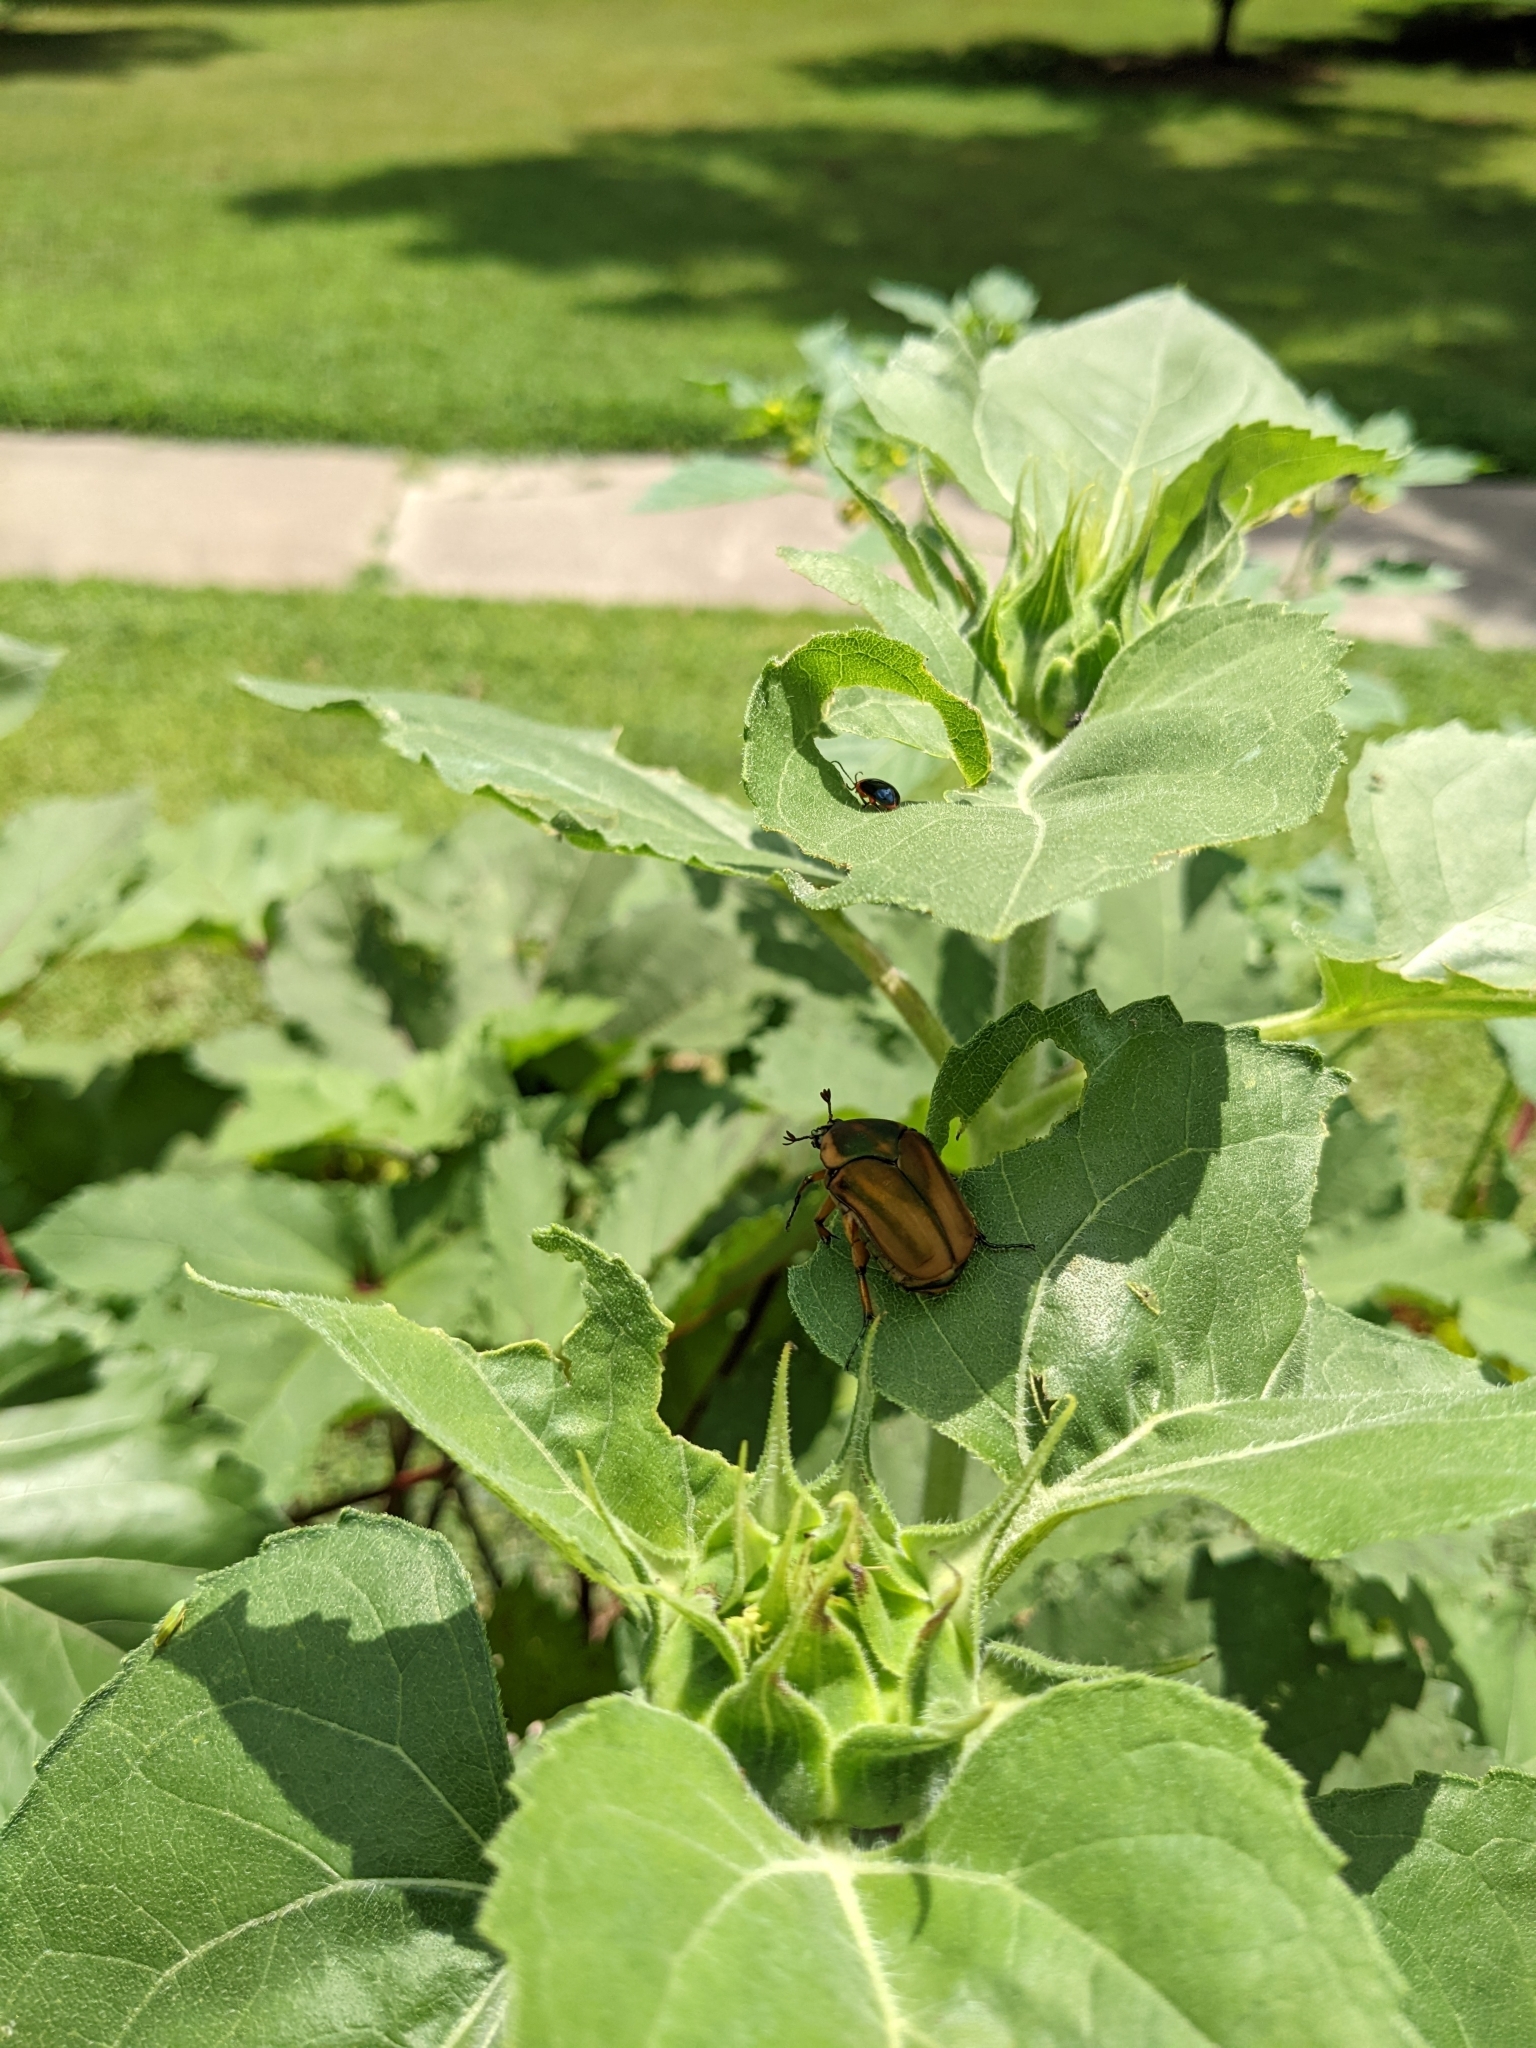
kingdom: Animalia
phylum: Arthropoda
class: Insecta
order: Coleoptera
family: Scarabaeidae
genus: Cotinis
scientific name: Cotinis nitida
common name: Common green june beetle
